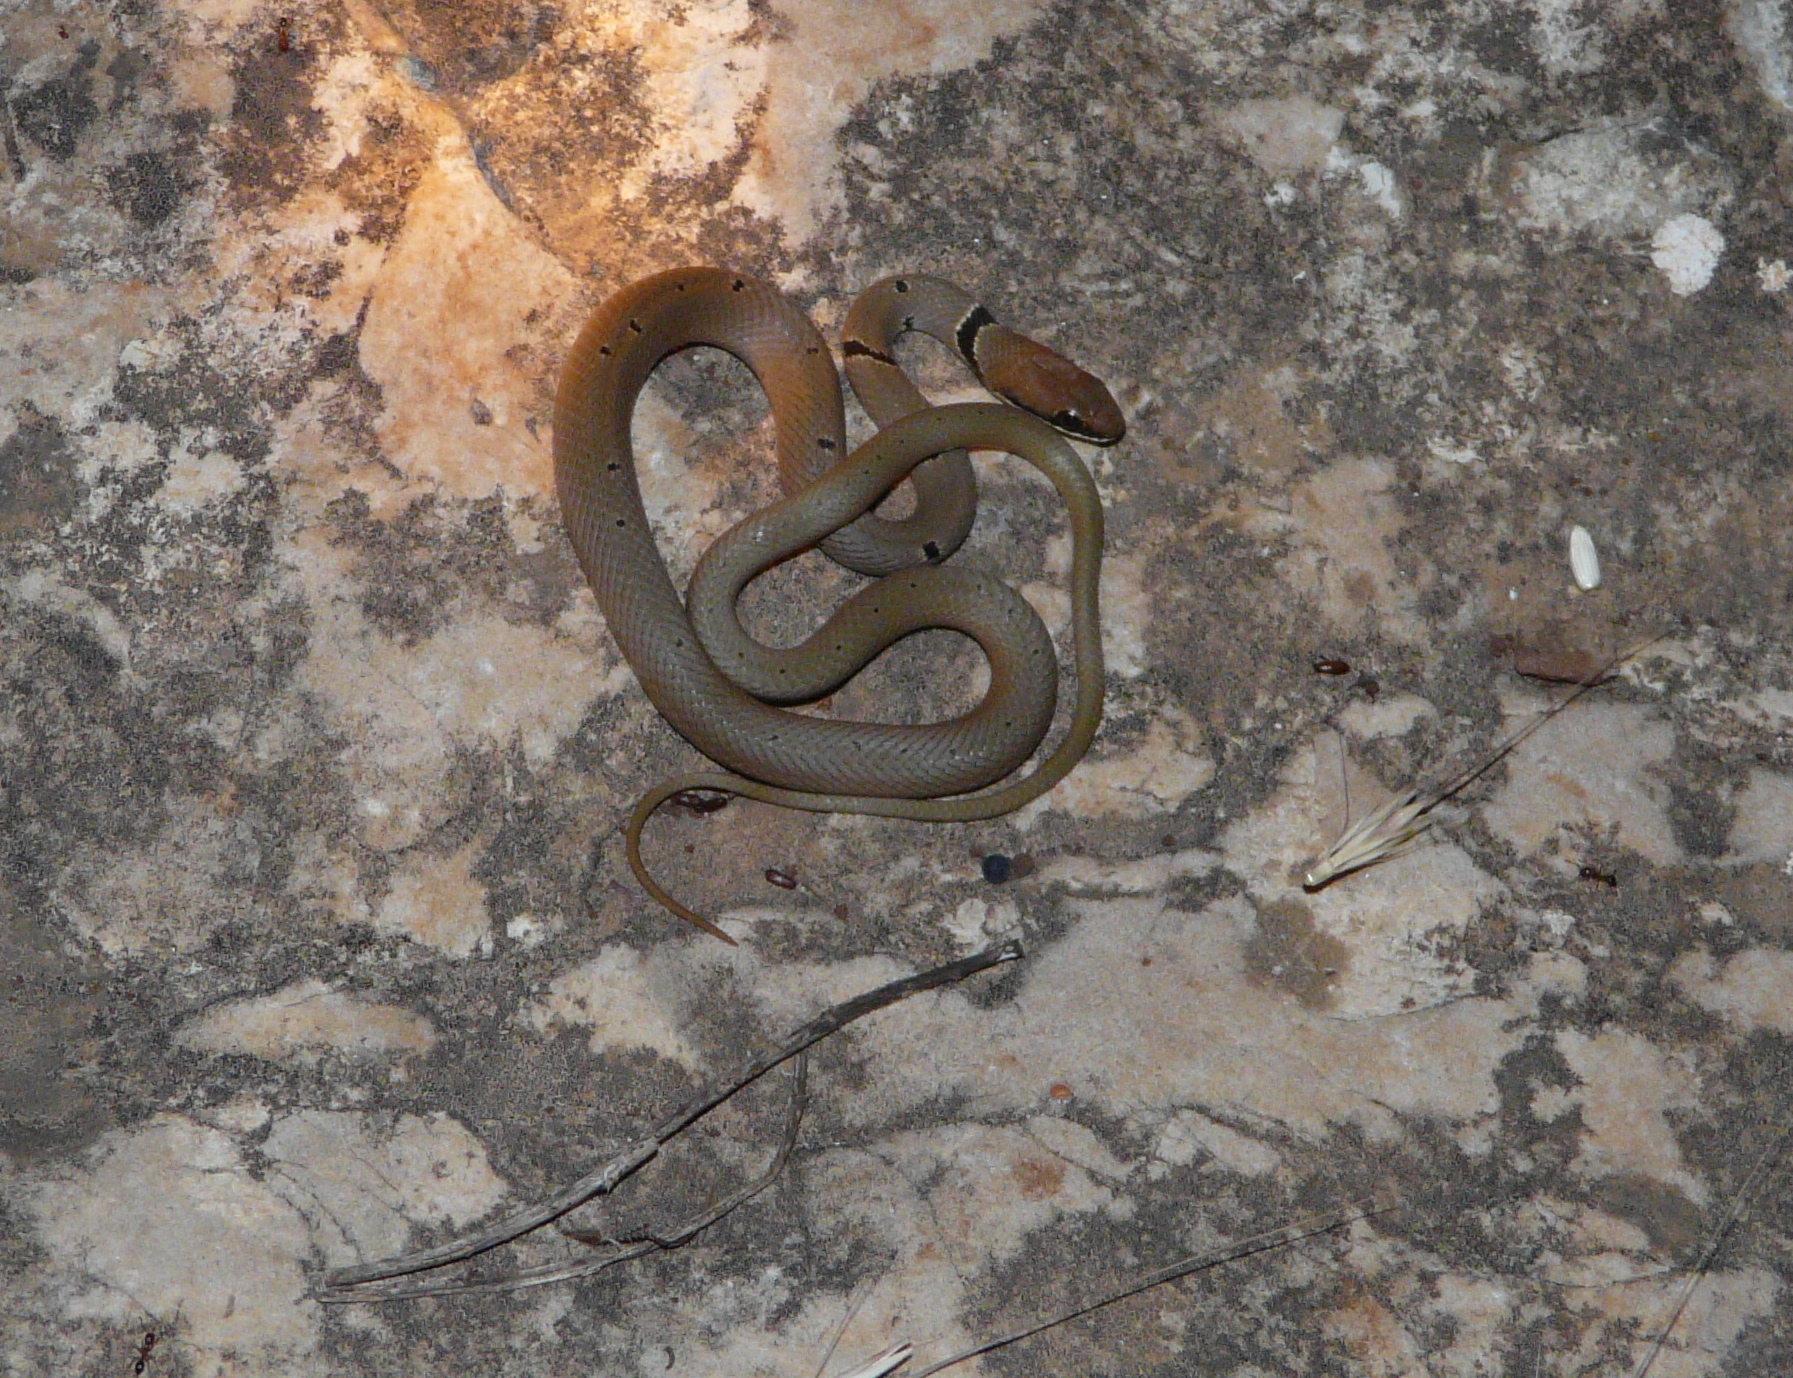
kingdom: Animalia
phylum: Chordata
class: Squamata
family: Colubridae
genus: Platyceps
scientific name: Platyceps collaris
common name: Collared dwarf racer
